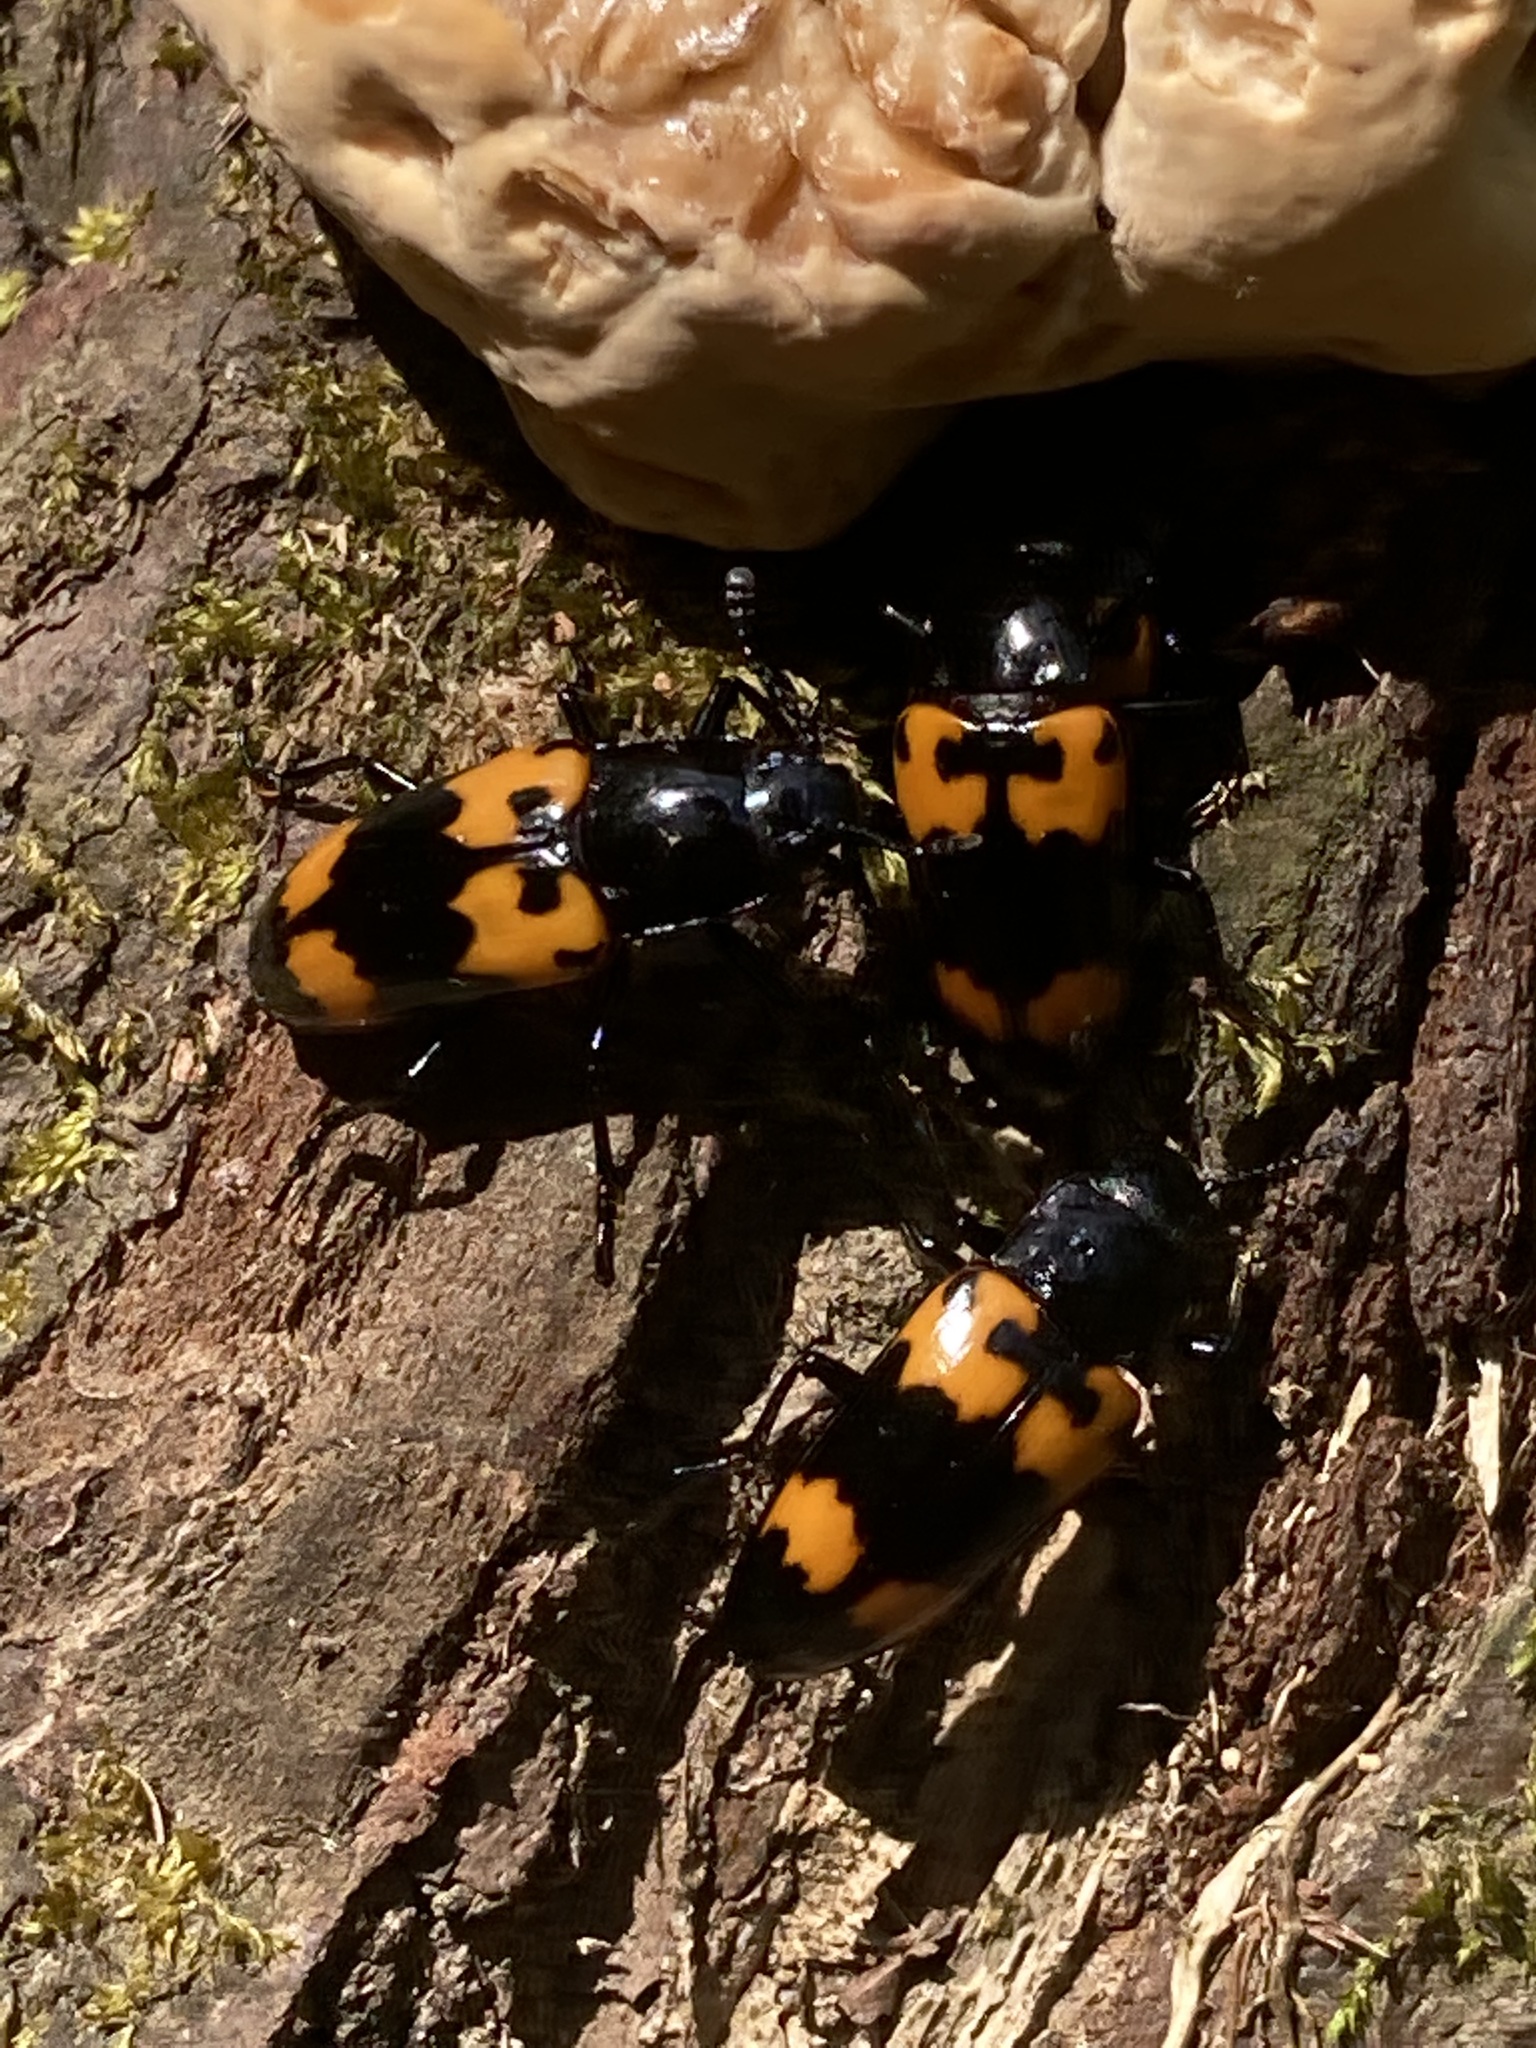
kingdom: Animalia
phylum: Arthropoda
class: Insecta
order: Coleoptera
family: Erotylidae
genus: Megalodacne
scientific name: Megalodacne heros
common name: Pleasing fungus beetle
